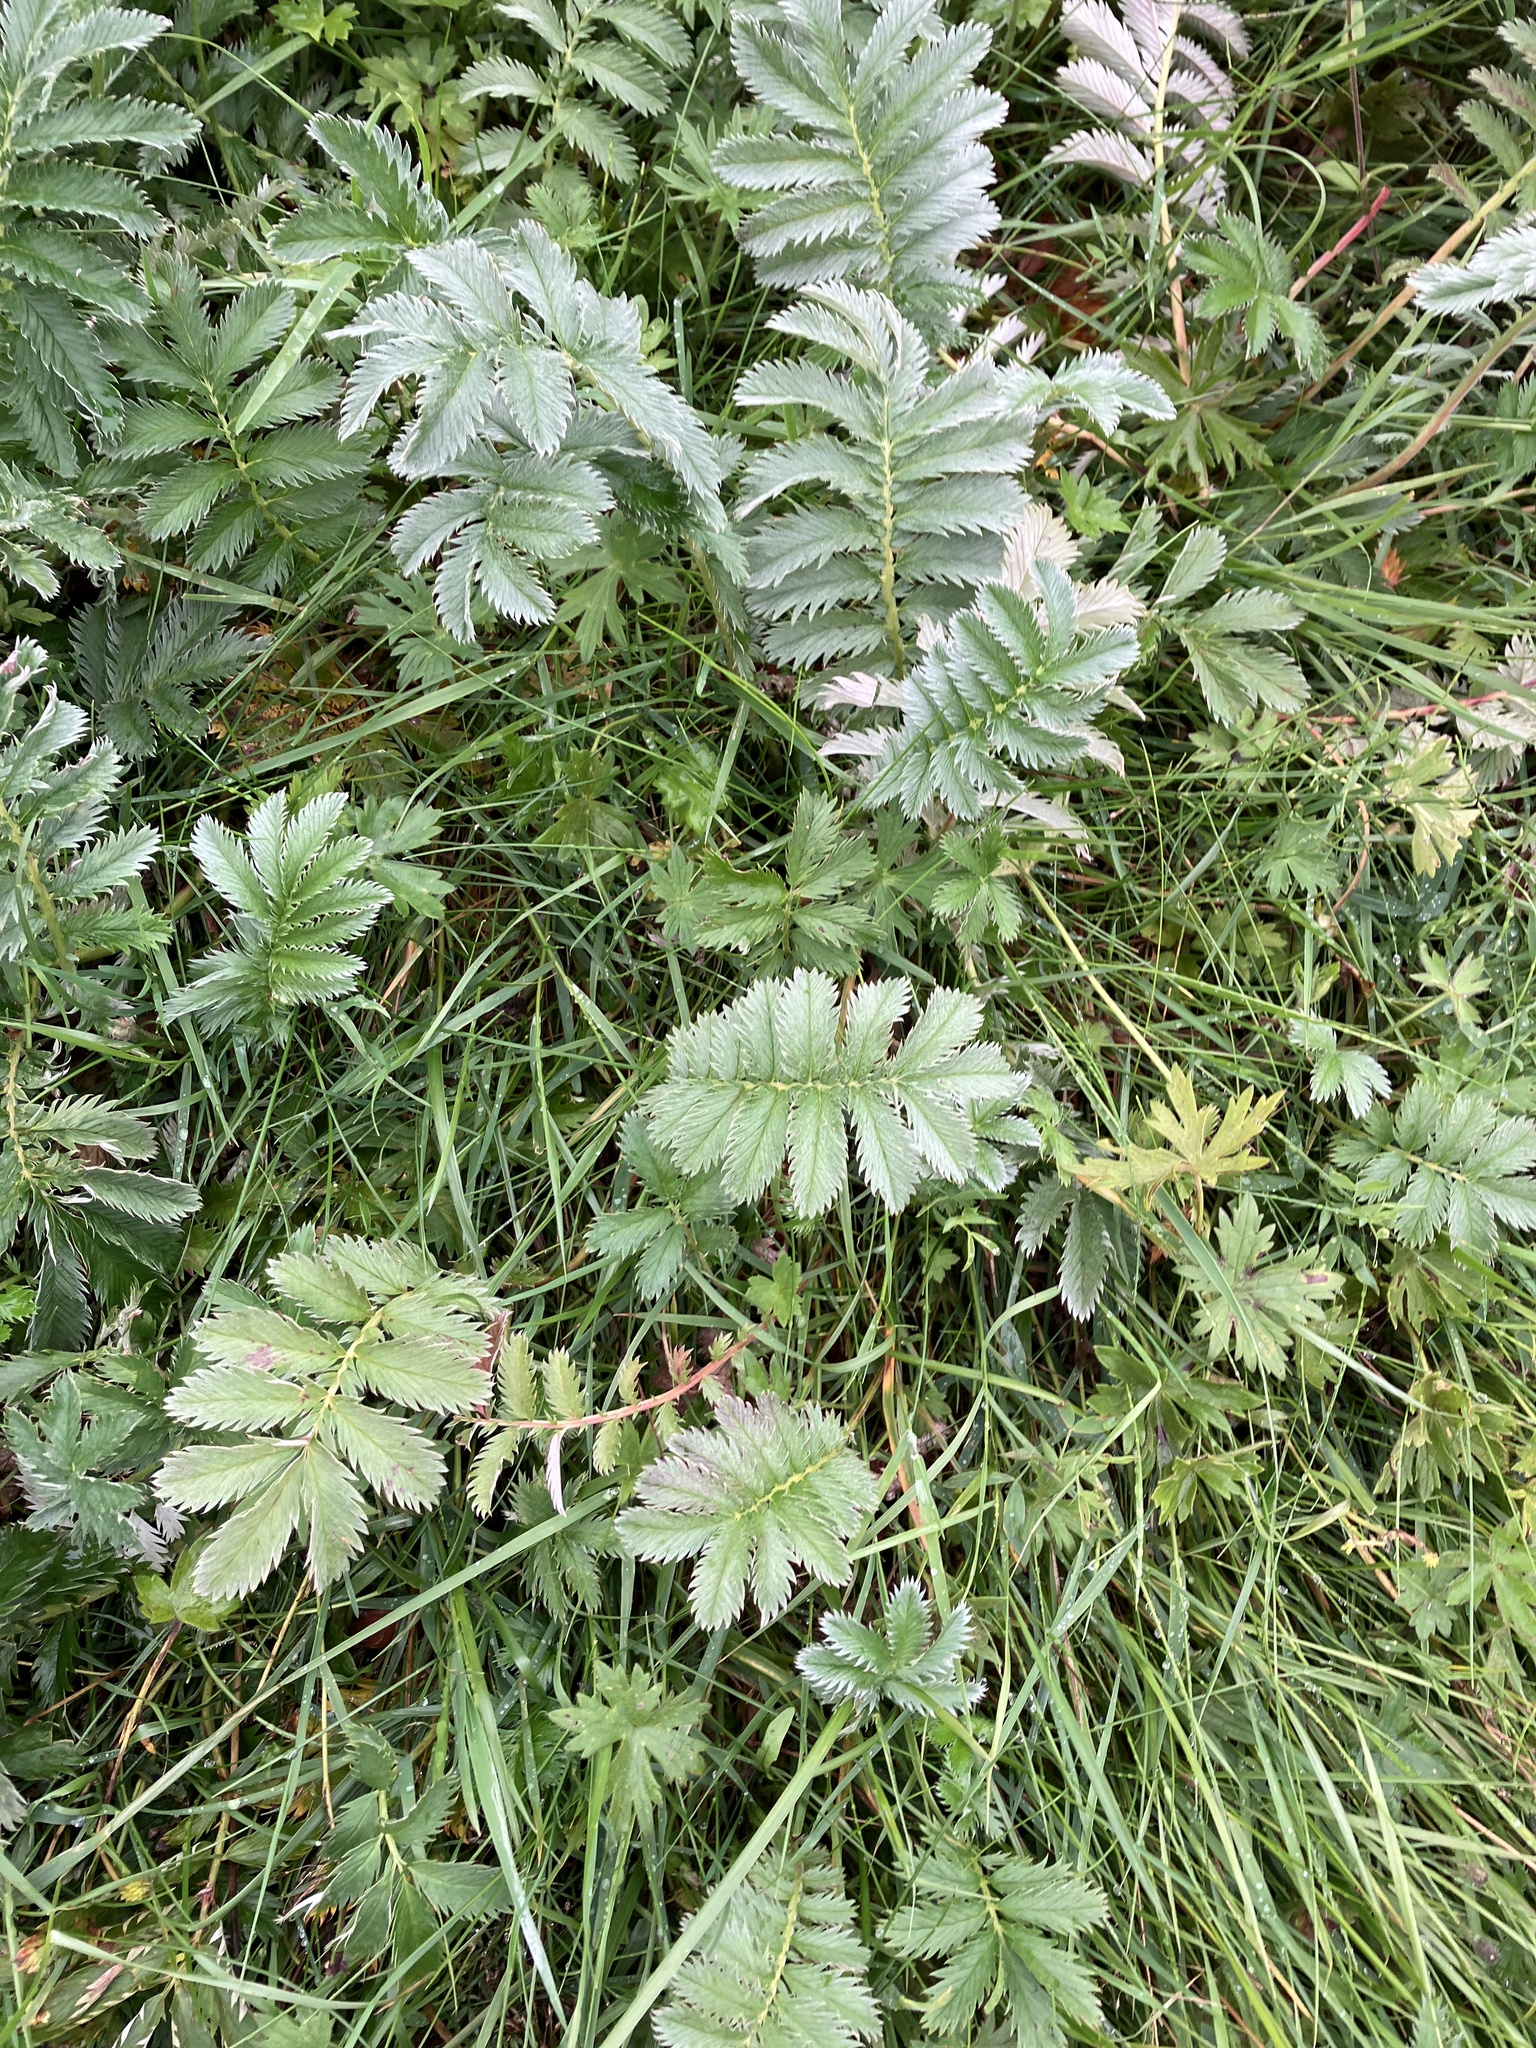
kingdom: Plantae
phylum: Tracheophyta
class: Magnoliopsida
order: Rosales
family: Rosaceae
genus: Argentina
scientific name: Argentina anserina
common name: Common silverweed
